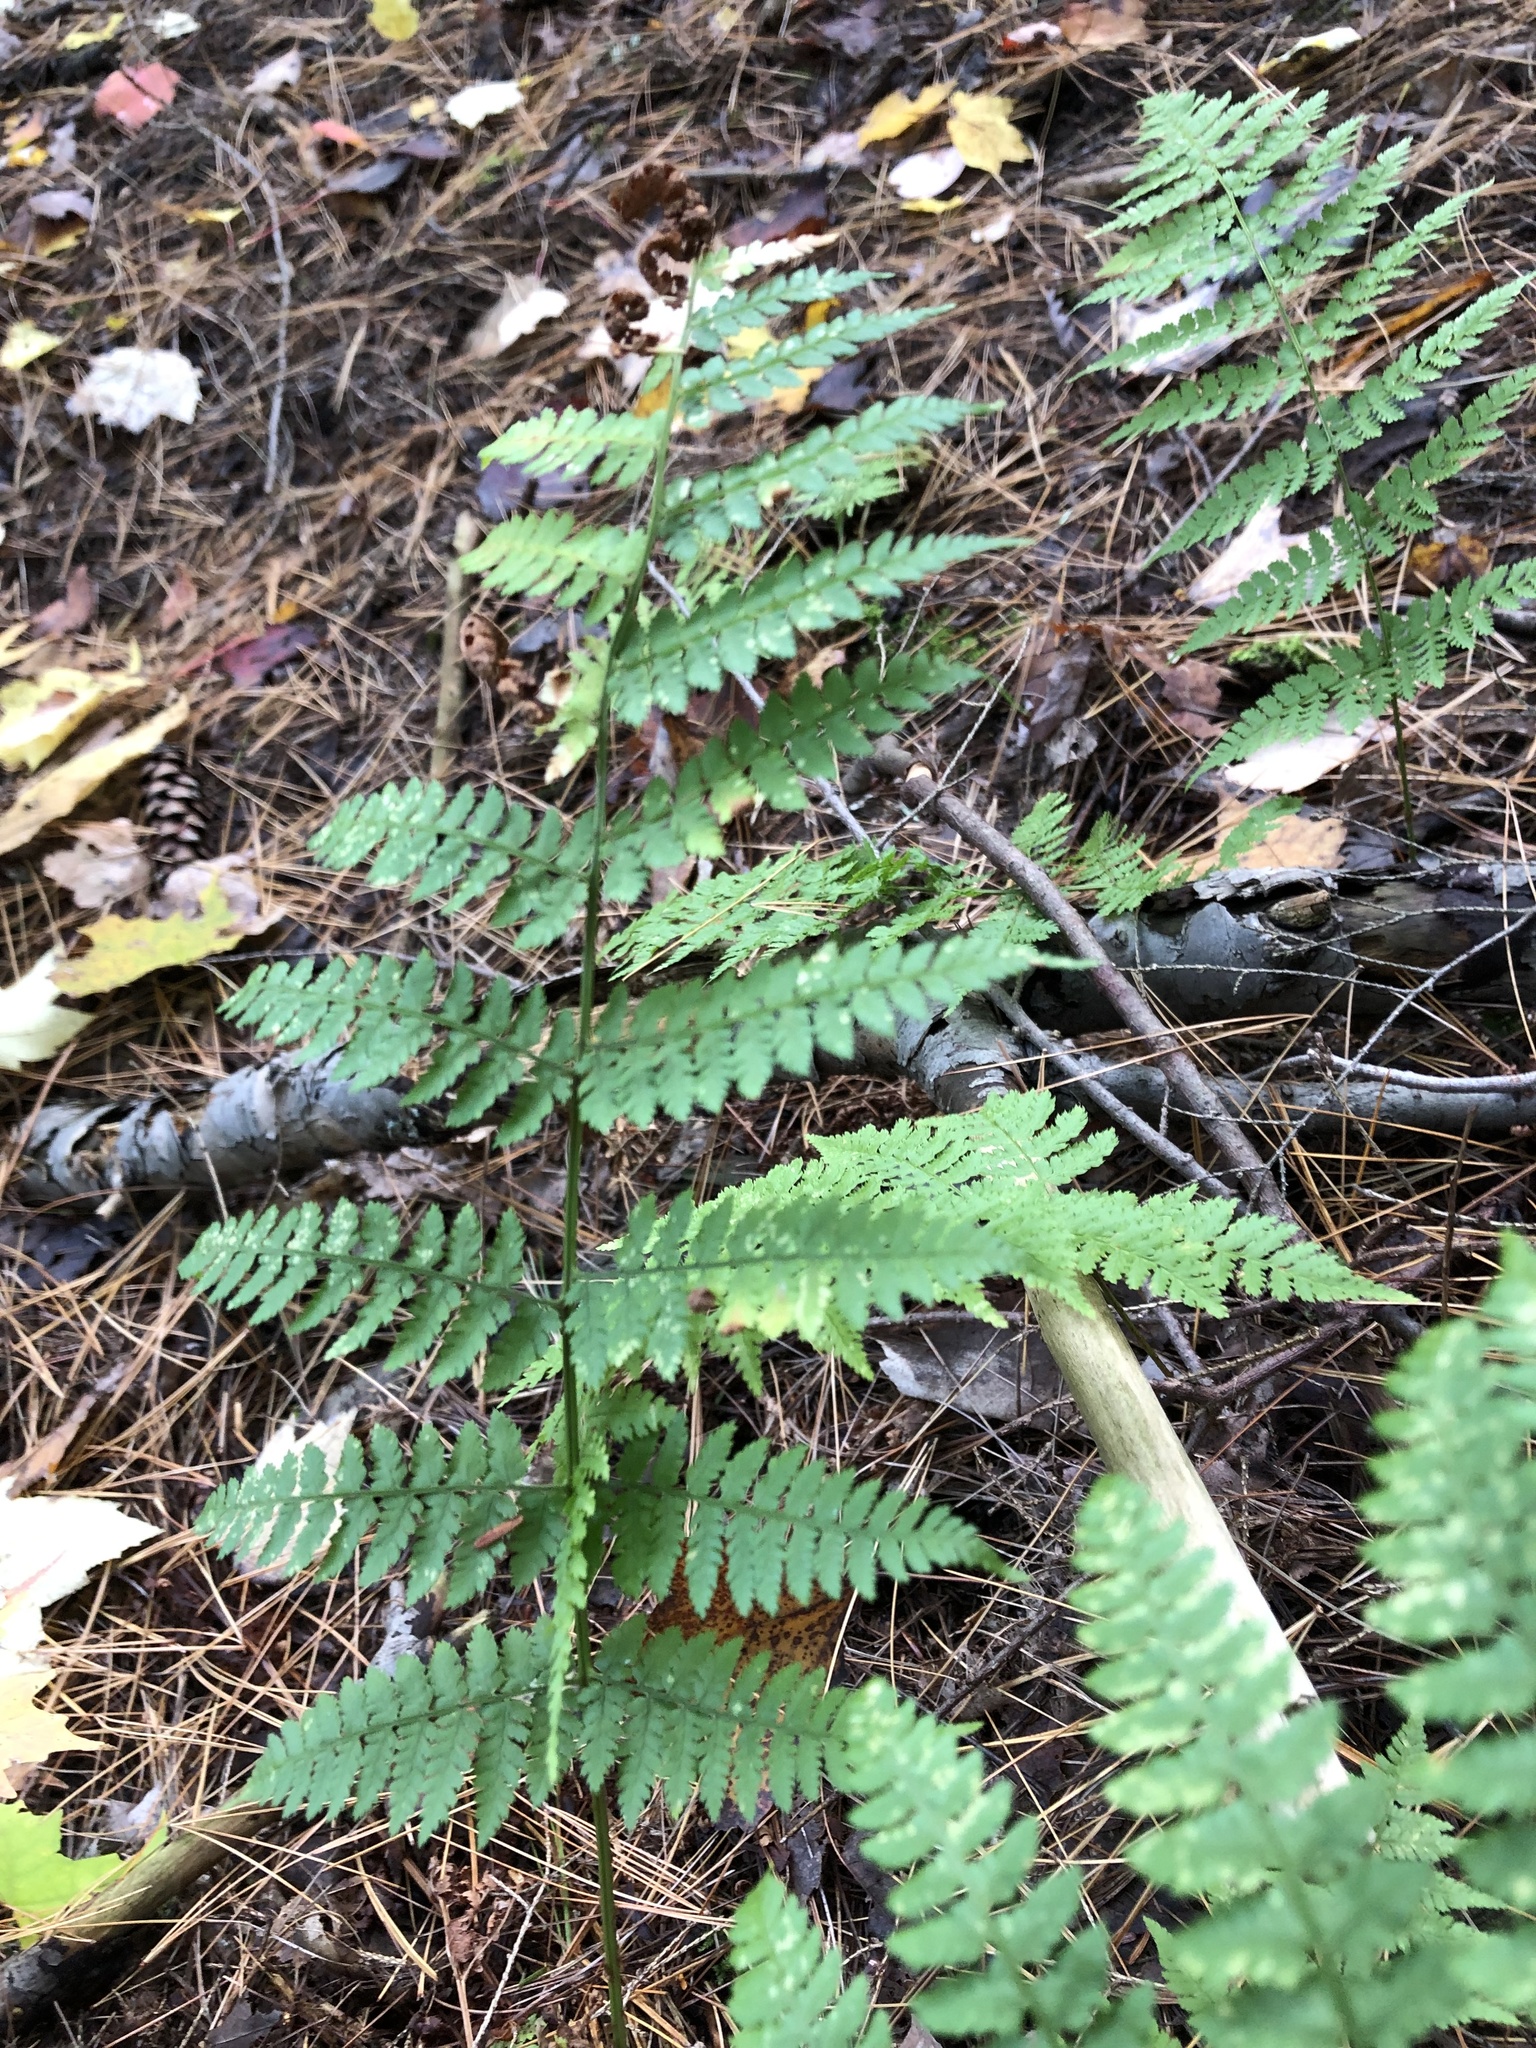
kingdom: Plantae
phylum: Tracheophyta
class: Polypodiopsida
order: Polypodiales
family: Dryopteridaceae
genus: Dryopteris
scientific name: Dryopteris intermedia
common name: Evergreen wood fern
